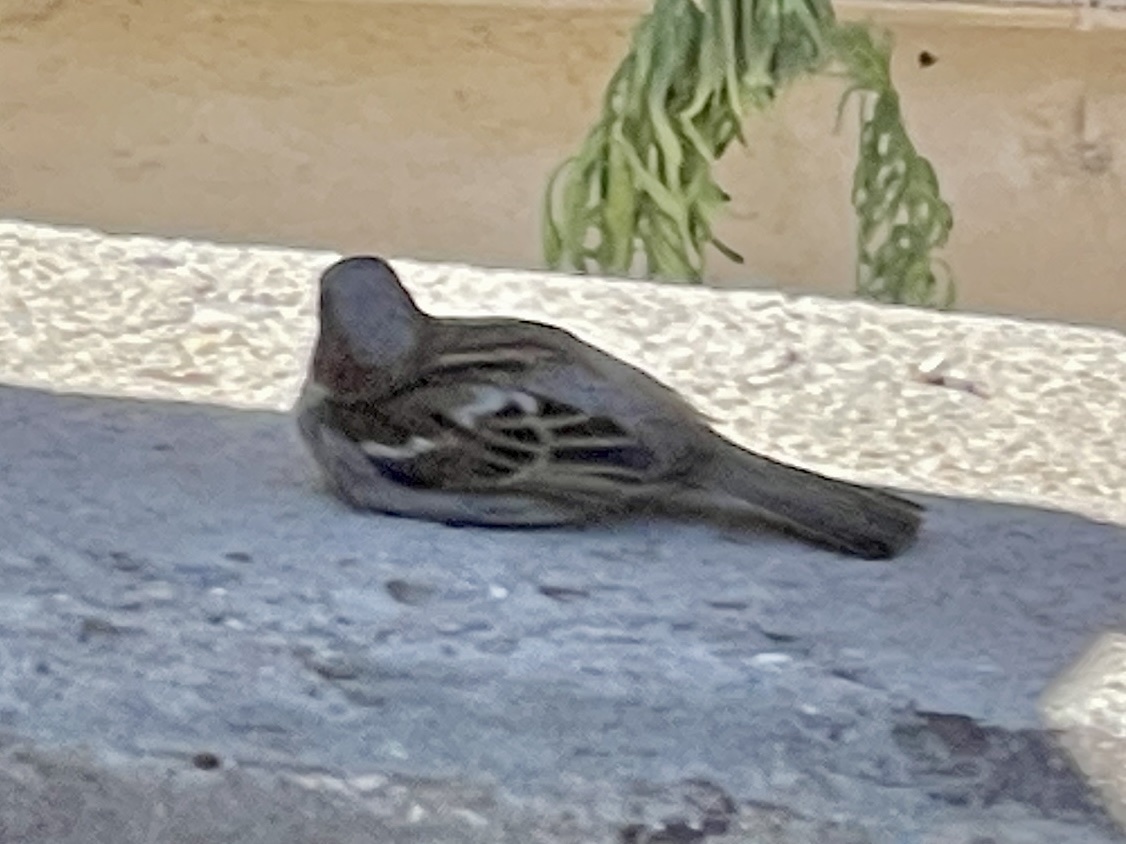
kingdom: Animalia
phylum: Chordata
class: Aves
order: Passeriformes
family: Passeridae
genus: Passer
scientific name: Passer domesticus
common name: House sparrow
